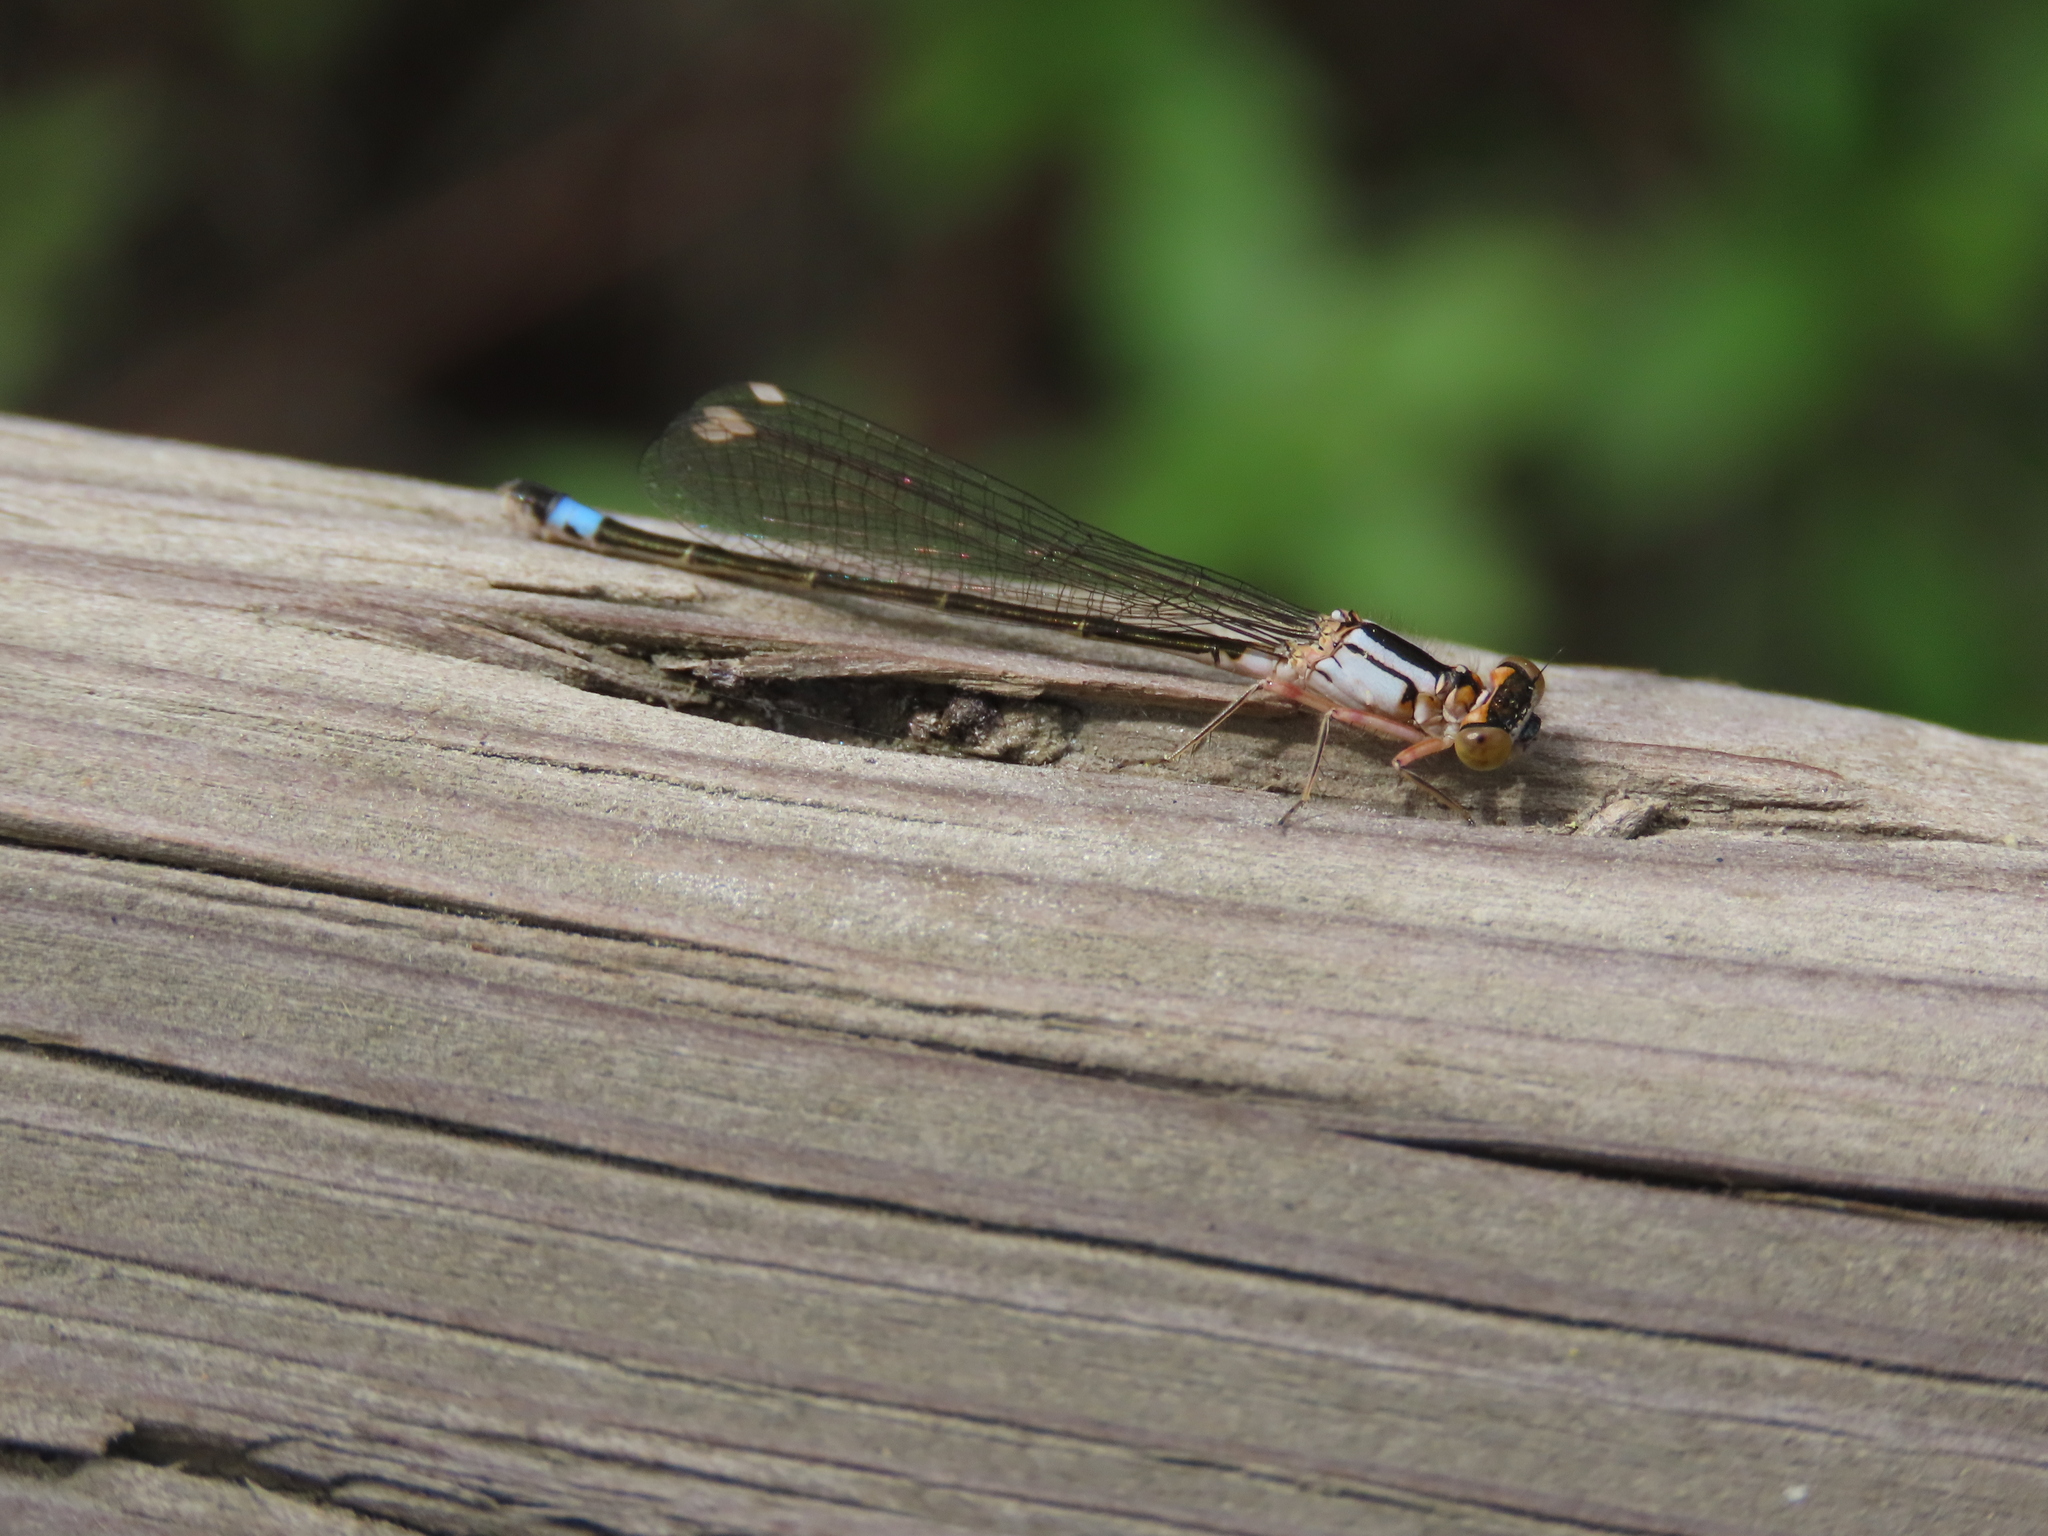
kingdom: Animalia
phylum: Arthropoda
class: Insecta
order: Odonata
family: Coenagrionidae
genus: Ischnura
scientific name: Ischnura cervula
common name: Pacific forktail
